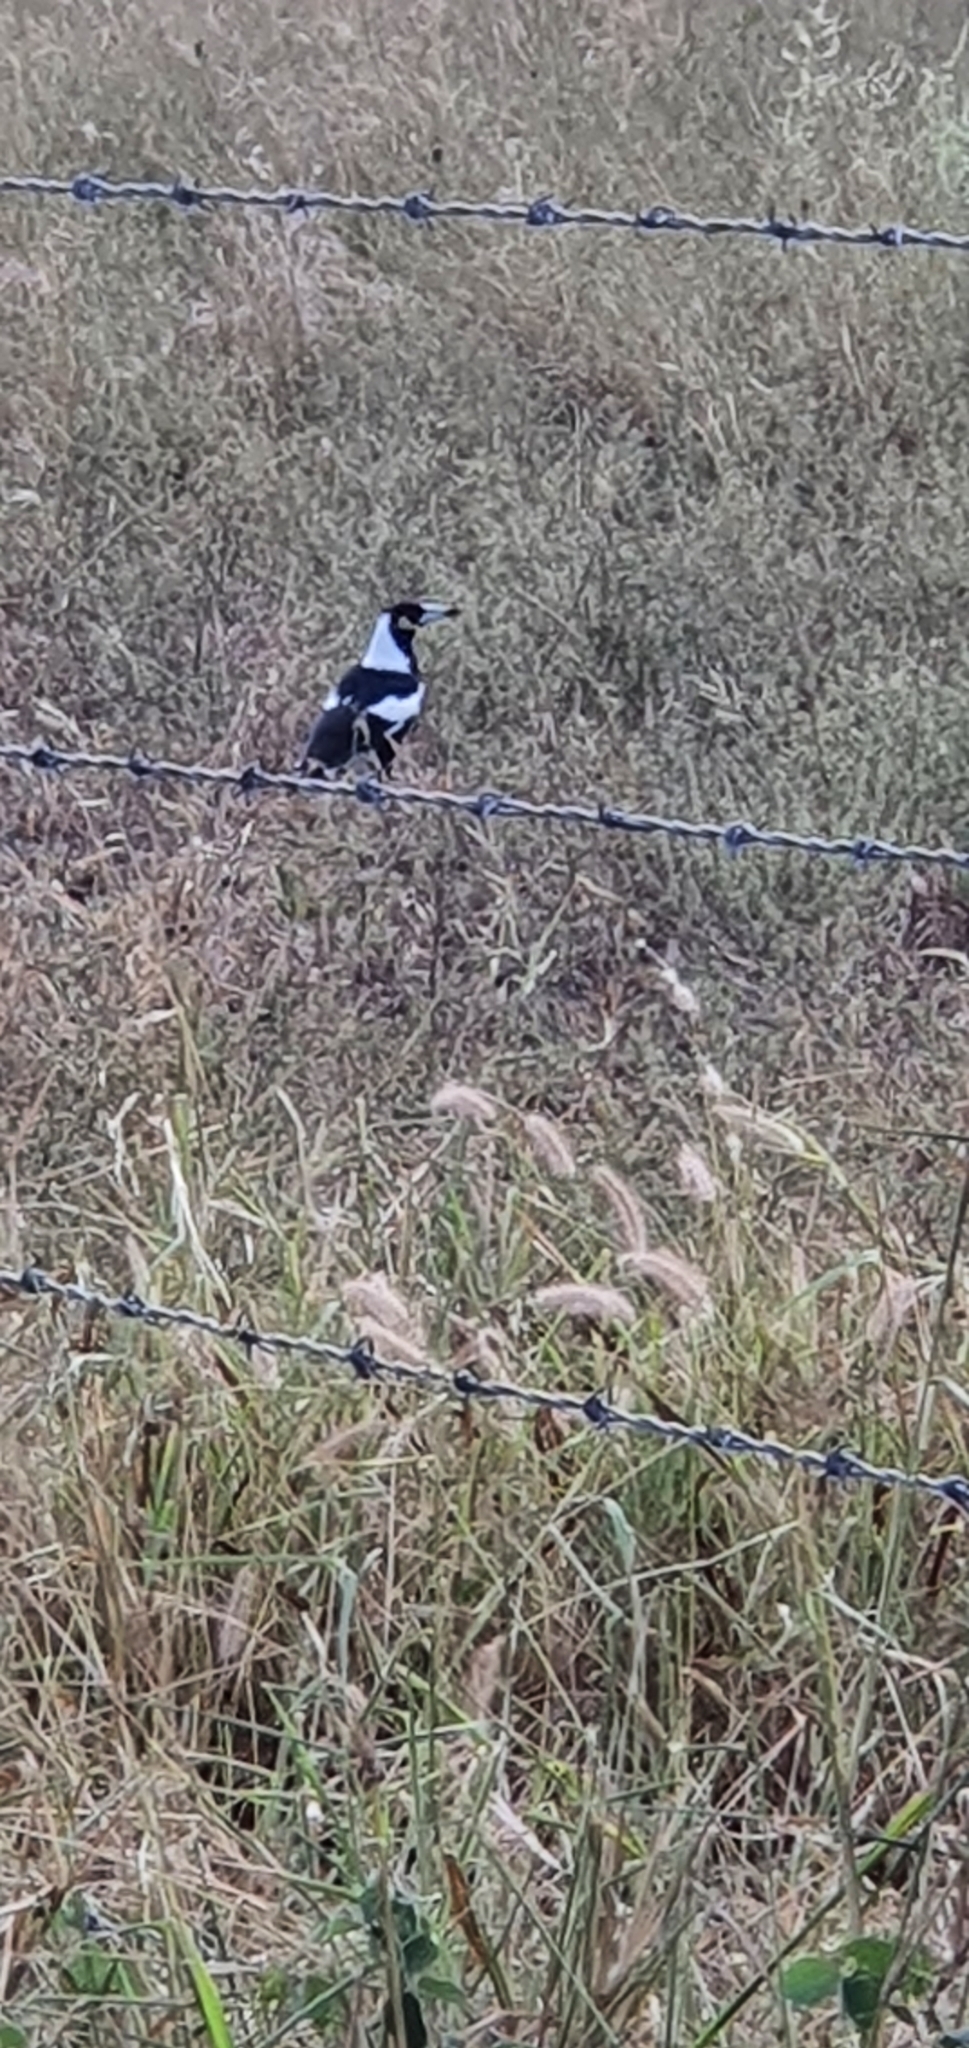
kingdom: Animalia
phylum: Chordata
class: Aves
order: Passeriformes
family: Cracticidae
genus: Gymnorhina
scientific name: Gymnorhina tibicen
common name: Australian magpie
